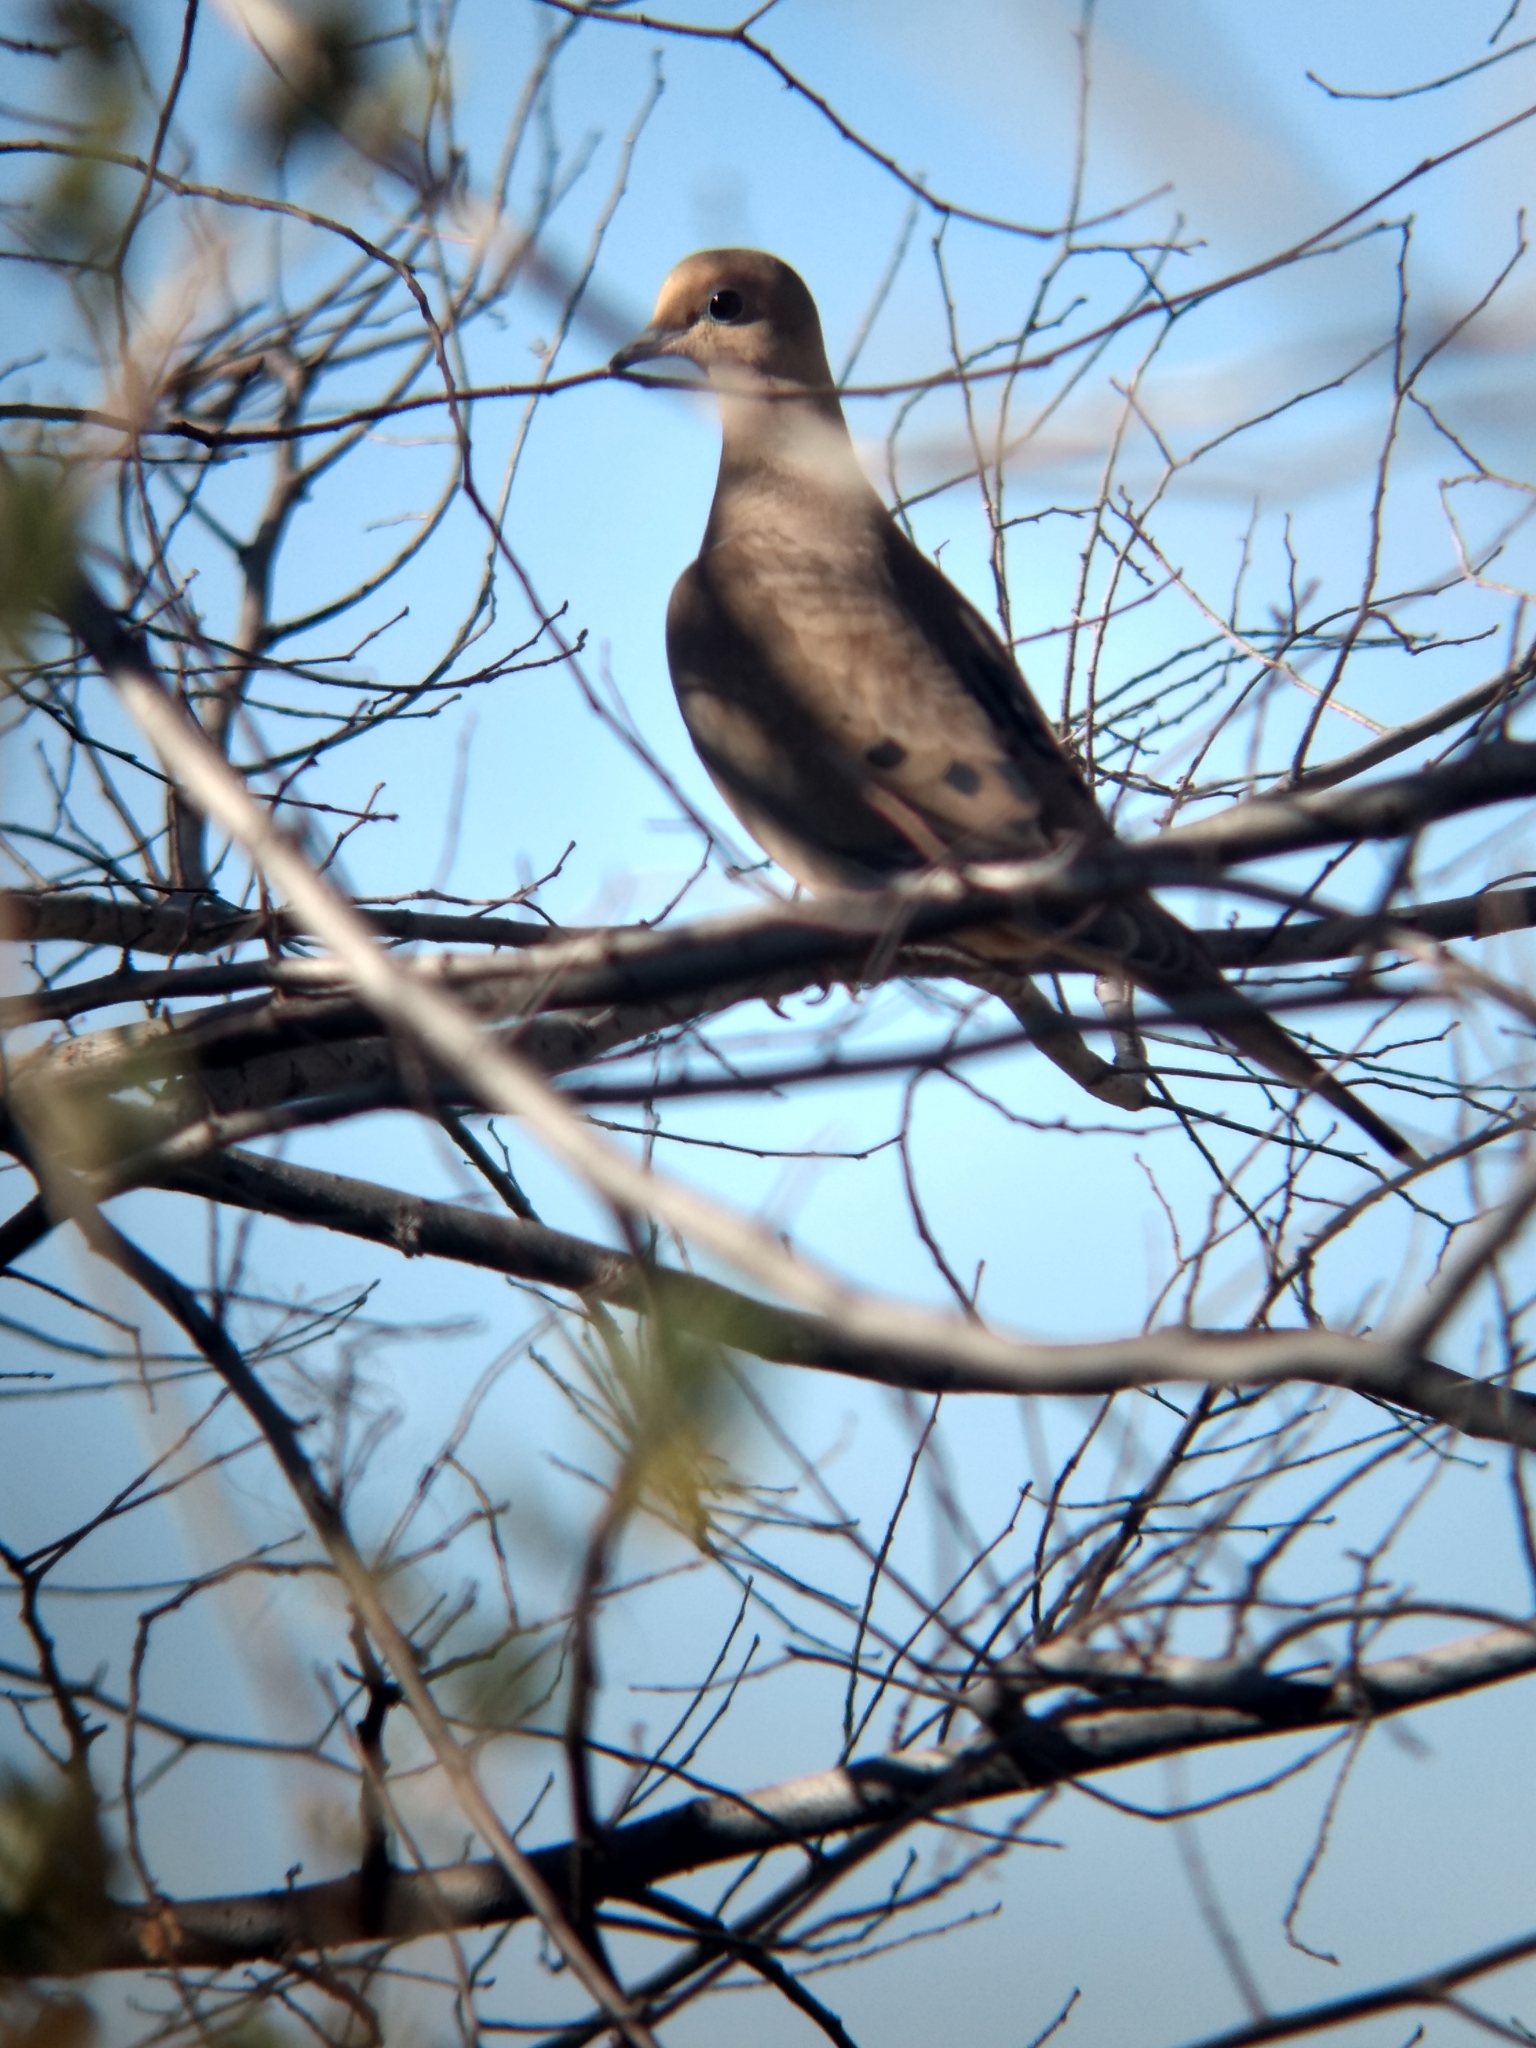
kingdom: Animalia
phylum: Chordata
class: Aves
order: Columbiformes
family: Columbidae
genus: Zenaida
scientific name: Zenaida macroura
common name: Mourning dove
